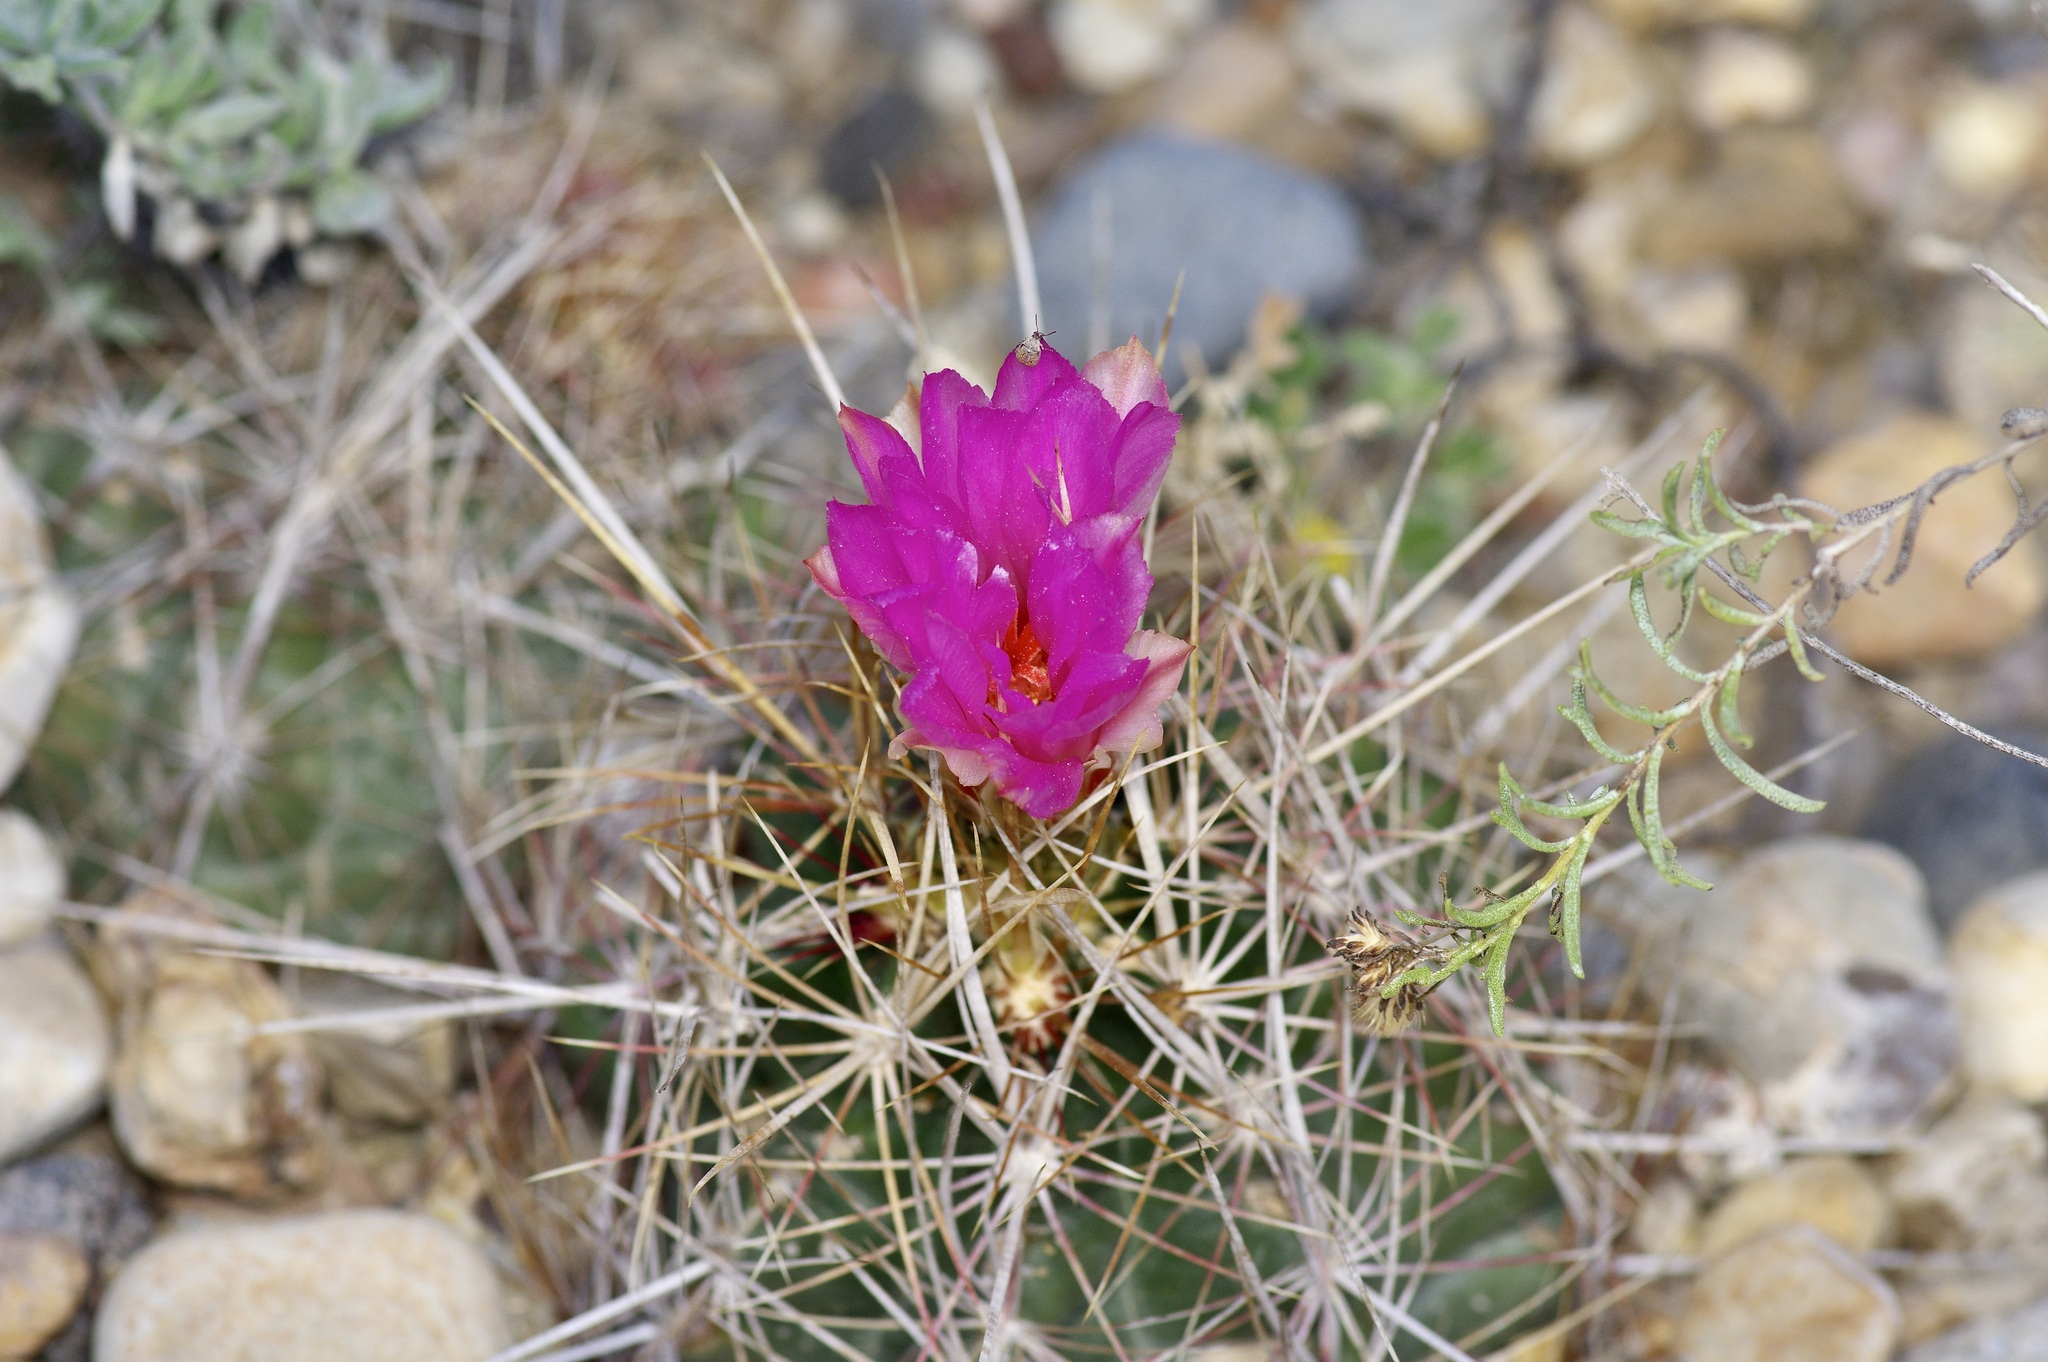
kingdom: Plantae
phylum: Tracheophyta
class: Magnoliopsida
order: Caryophyllales
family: Cactaceae
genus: Thelocactus
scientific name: Thelocactus bicolor
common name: Glory of texas
